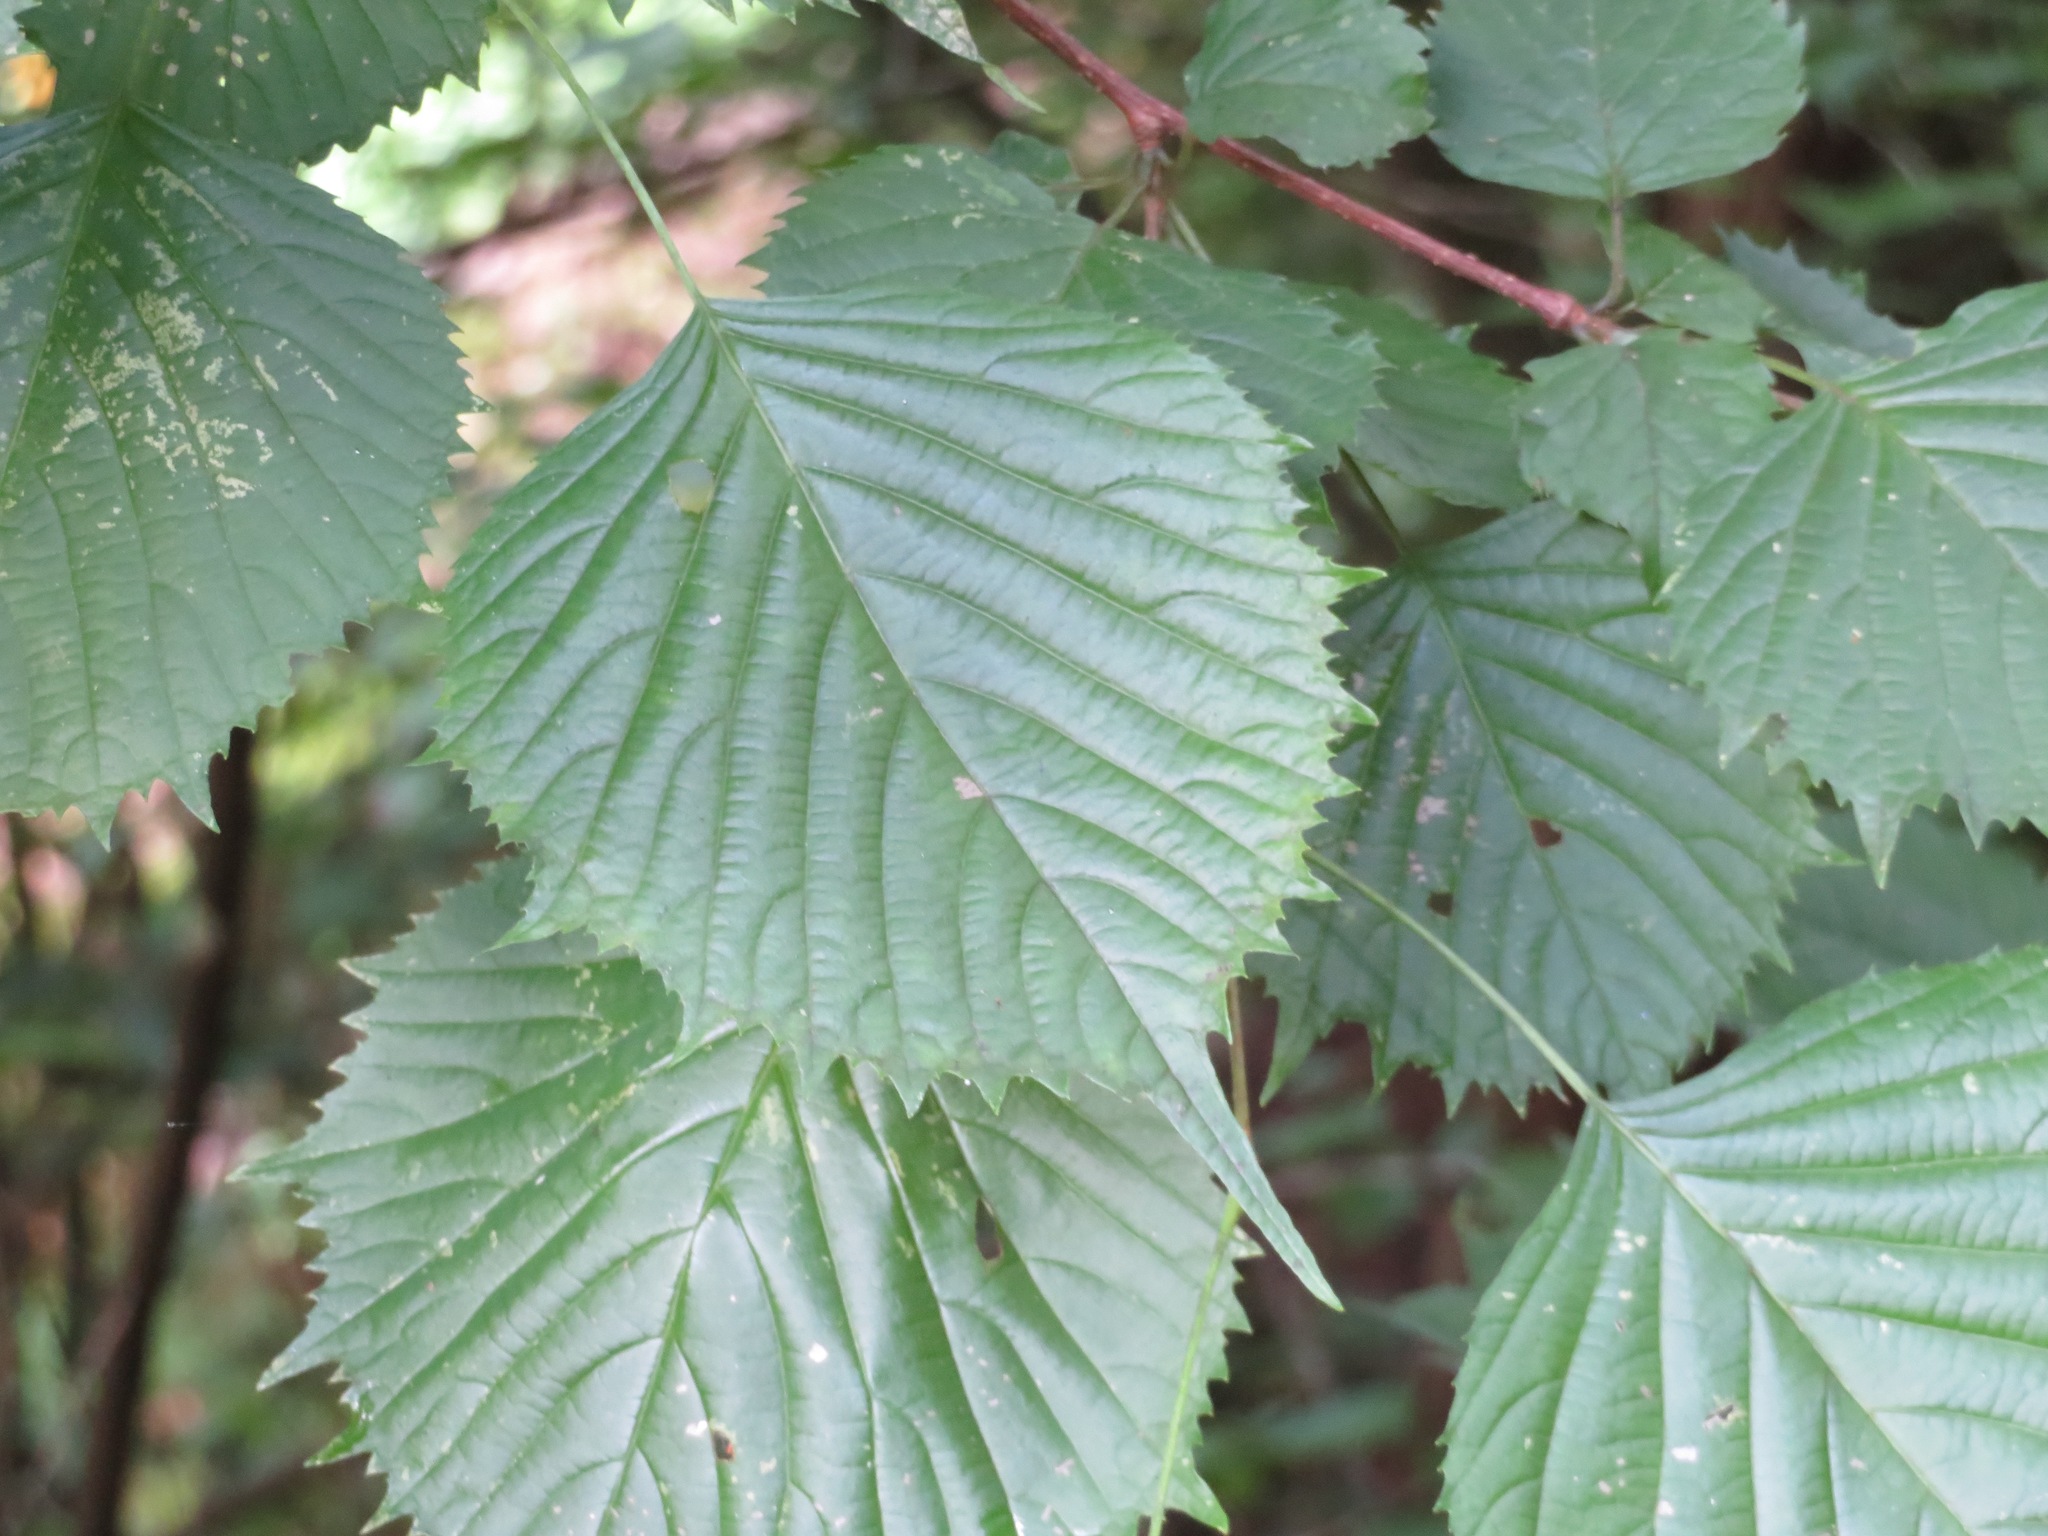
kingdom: Plantae
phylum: Tracheophyta
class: Magnoliopsida
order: Ranunculales
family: Eupteleaceae
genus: Euptelea
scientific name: Euptelea polyandra
